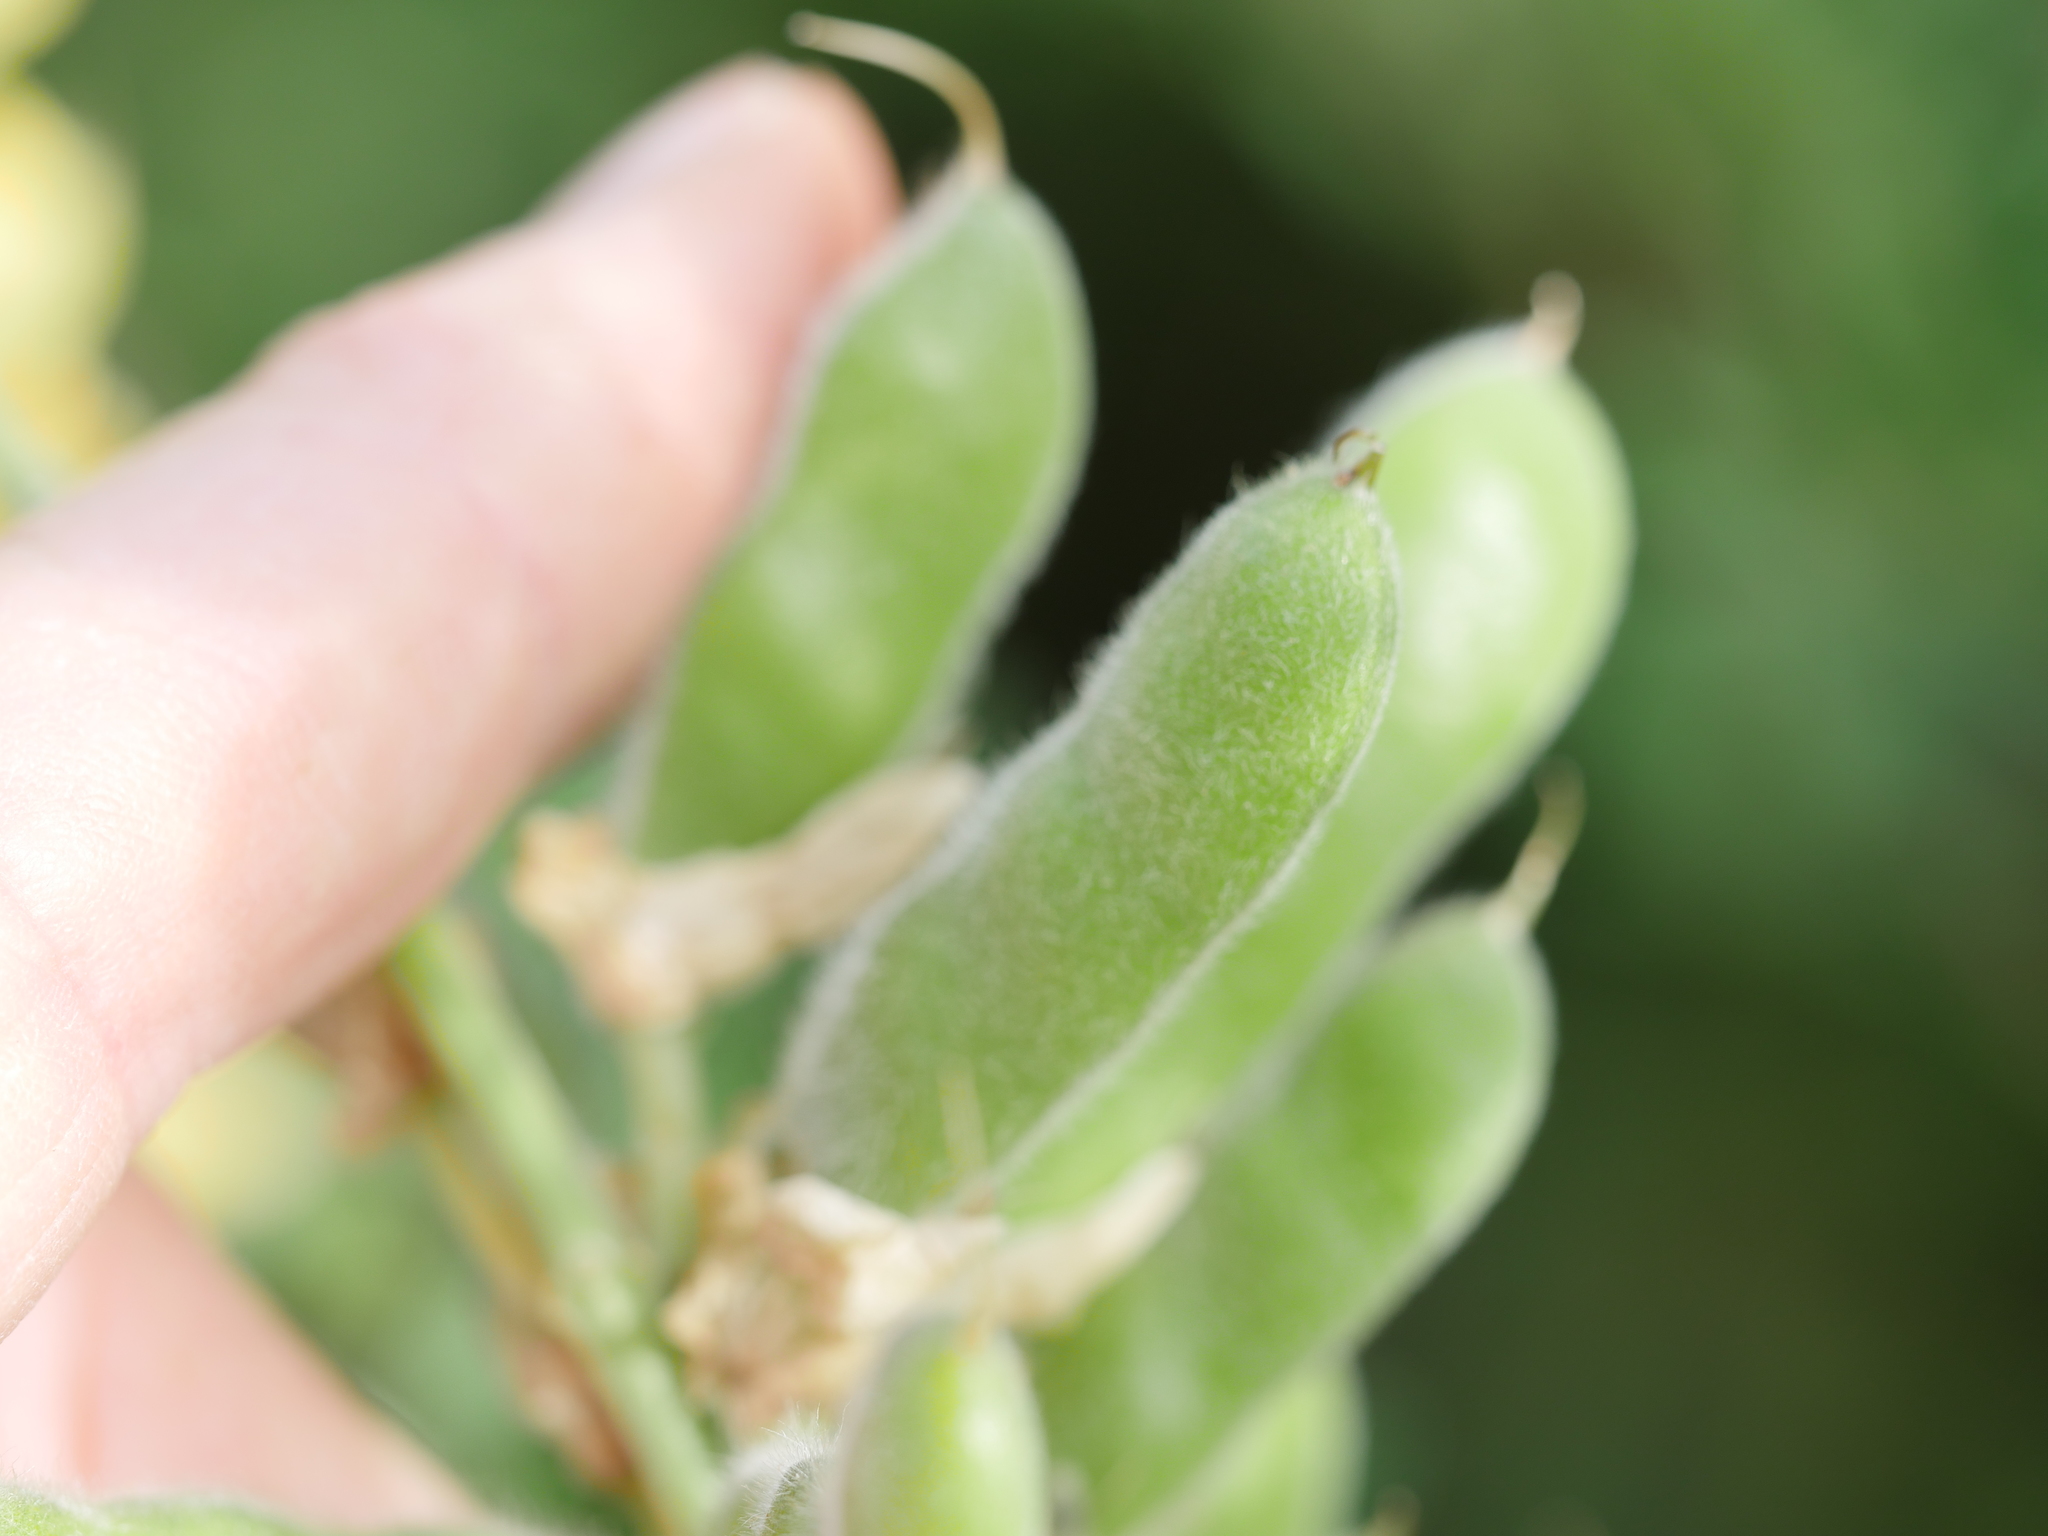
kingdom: Plantae
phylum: Tracheophyta
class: Magnoliopsida
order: Fabales
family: Fabaceae
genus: Lupinus
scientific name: Lupinus arboreus
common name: Yellow bush lupine
